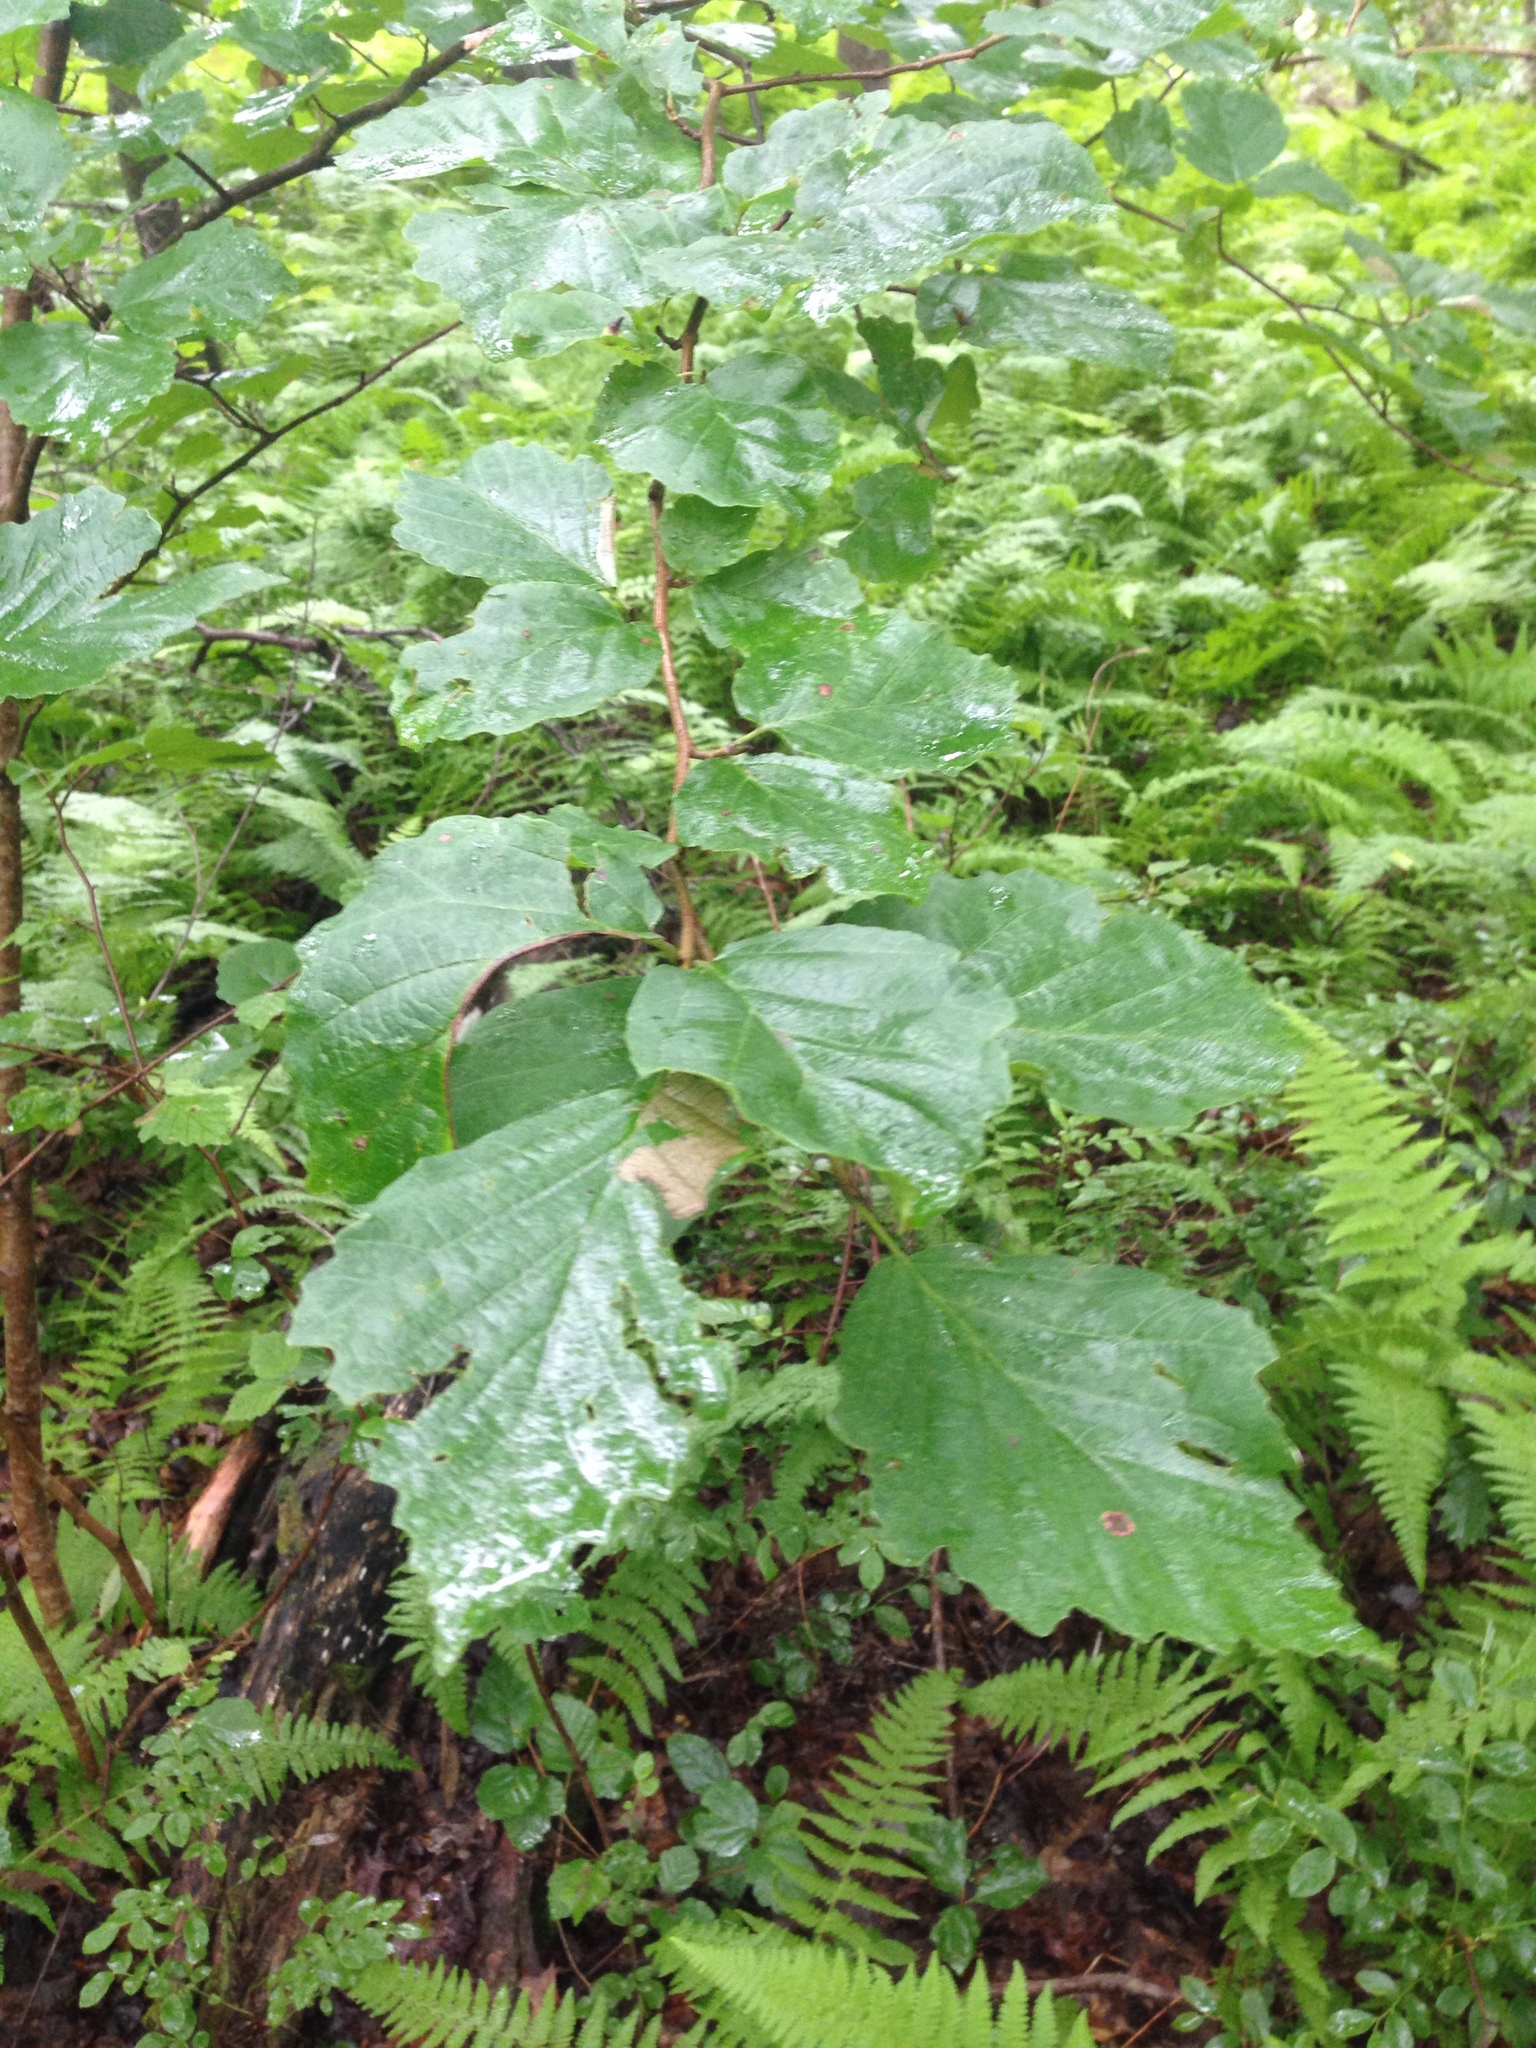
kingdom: Plantae
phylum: Tracheophyta
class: Magnoliopsida
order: Saxifragales
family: Hamamelidaceae
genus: Hamamelis
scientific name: Hamamelis virginiana
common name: Witch-hazel
